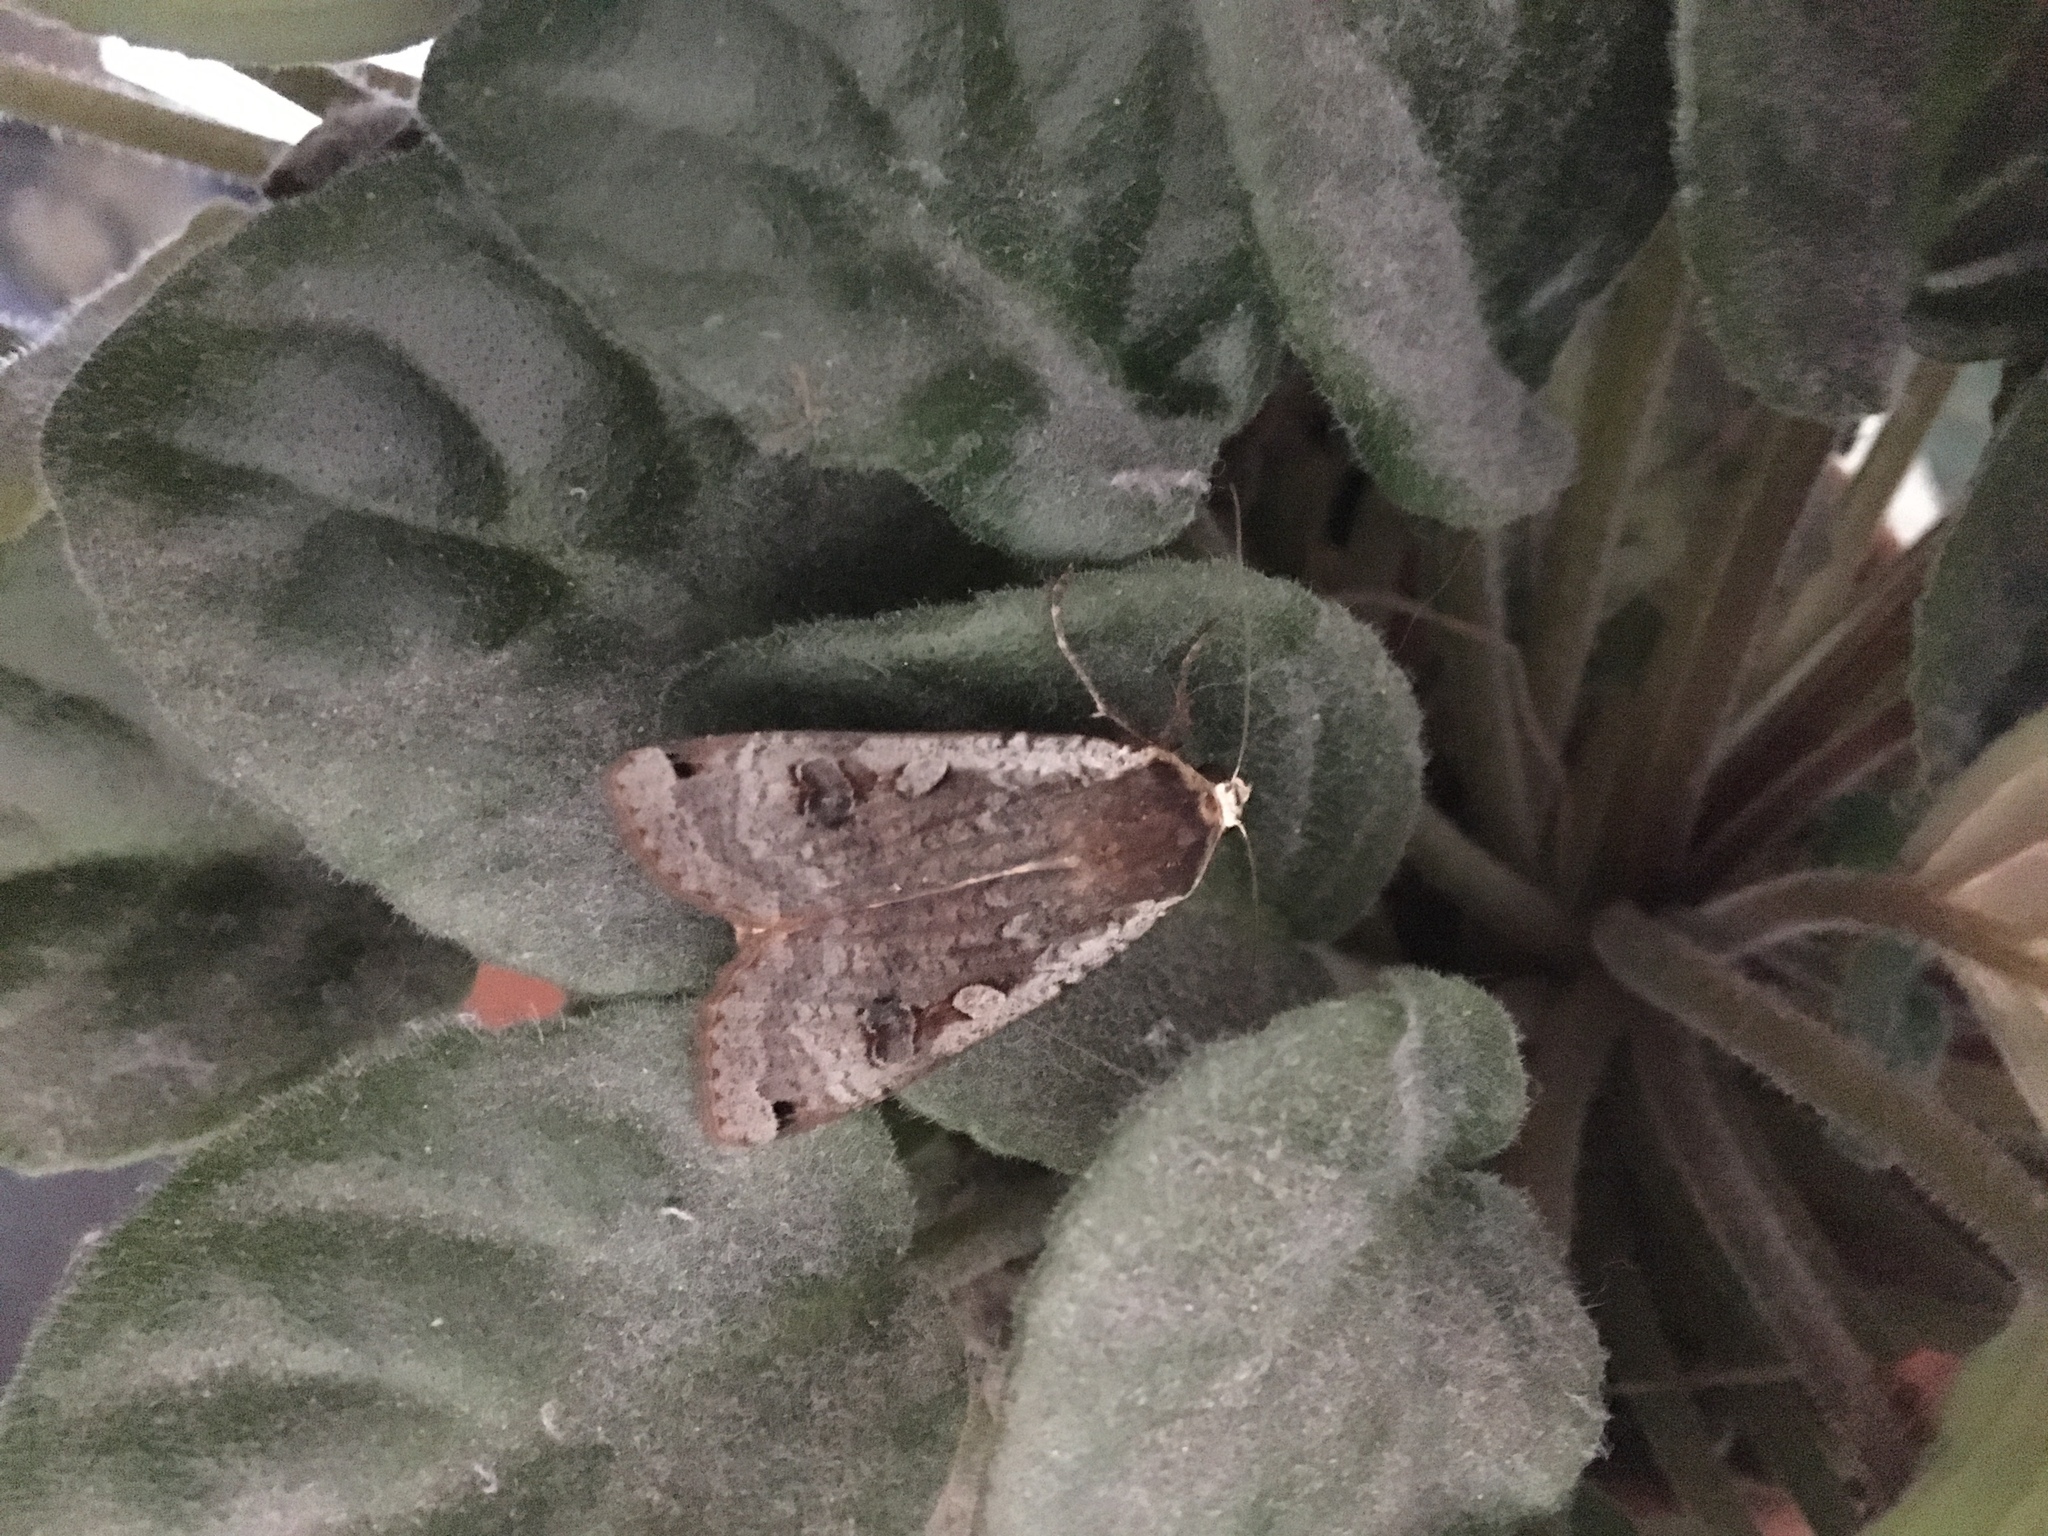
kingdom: Animalia
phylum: Arthropoda
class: Insecta
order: Lepidoptera
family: Noctuidae
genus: Noctua
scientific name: Noctua pronuba
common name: Large yellow underwing
